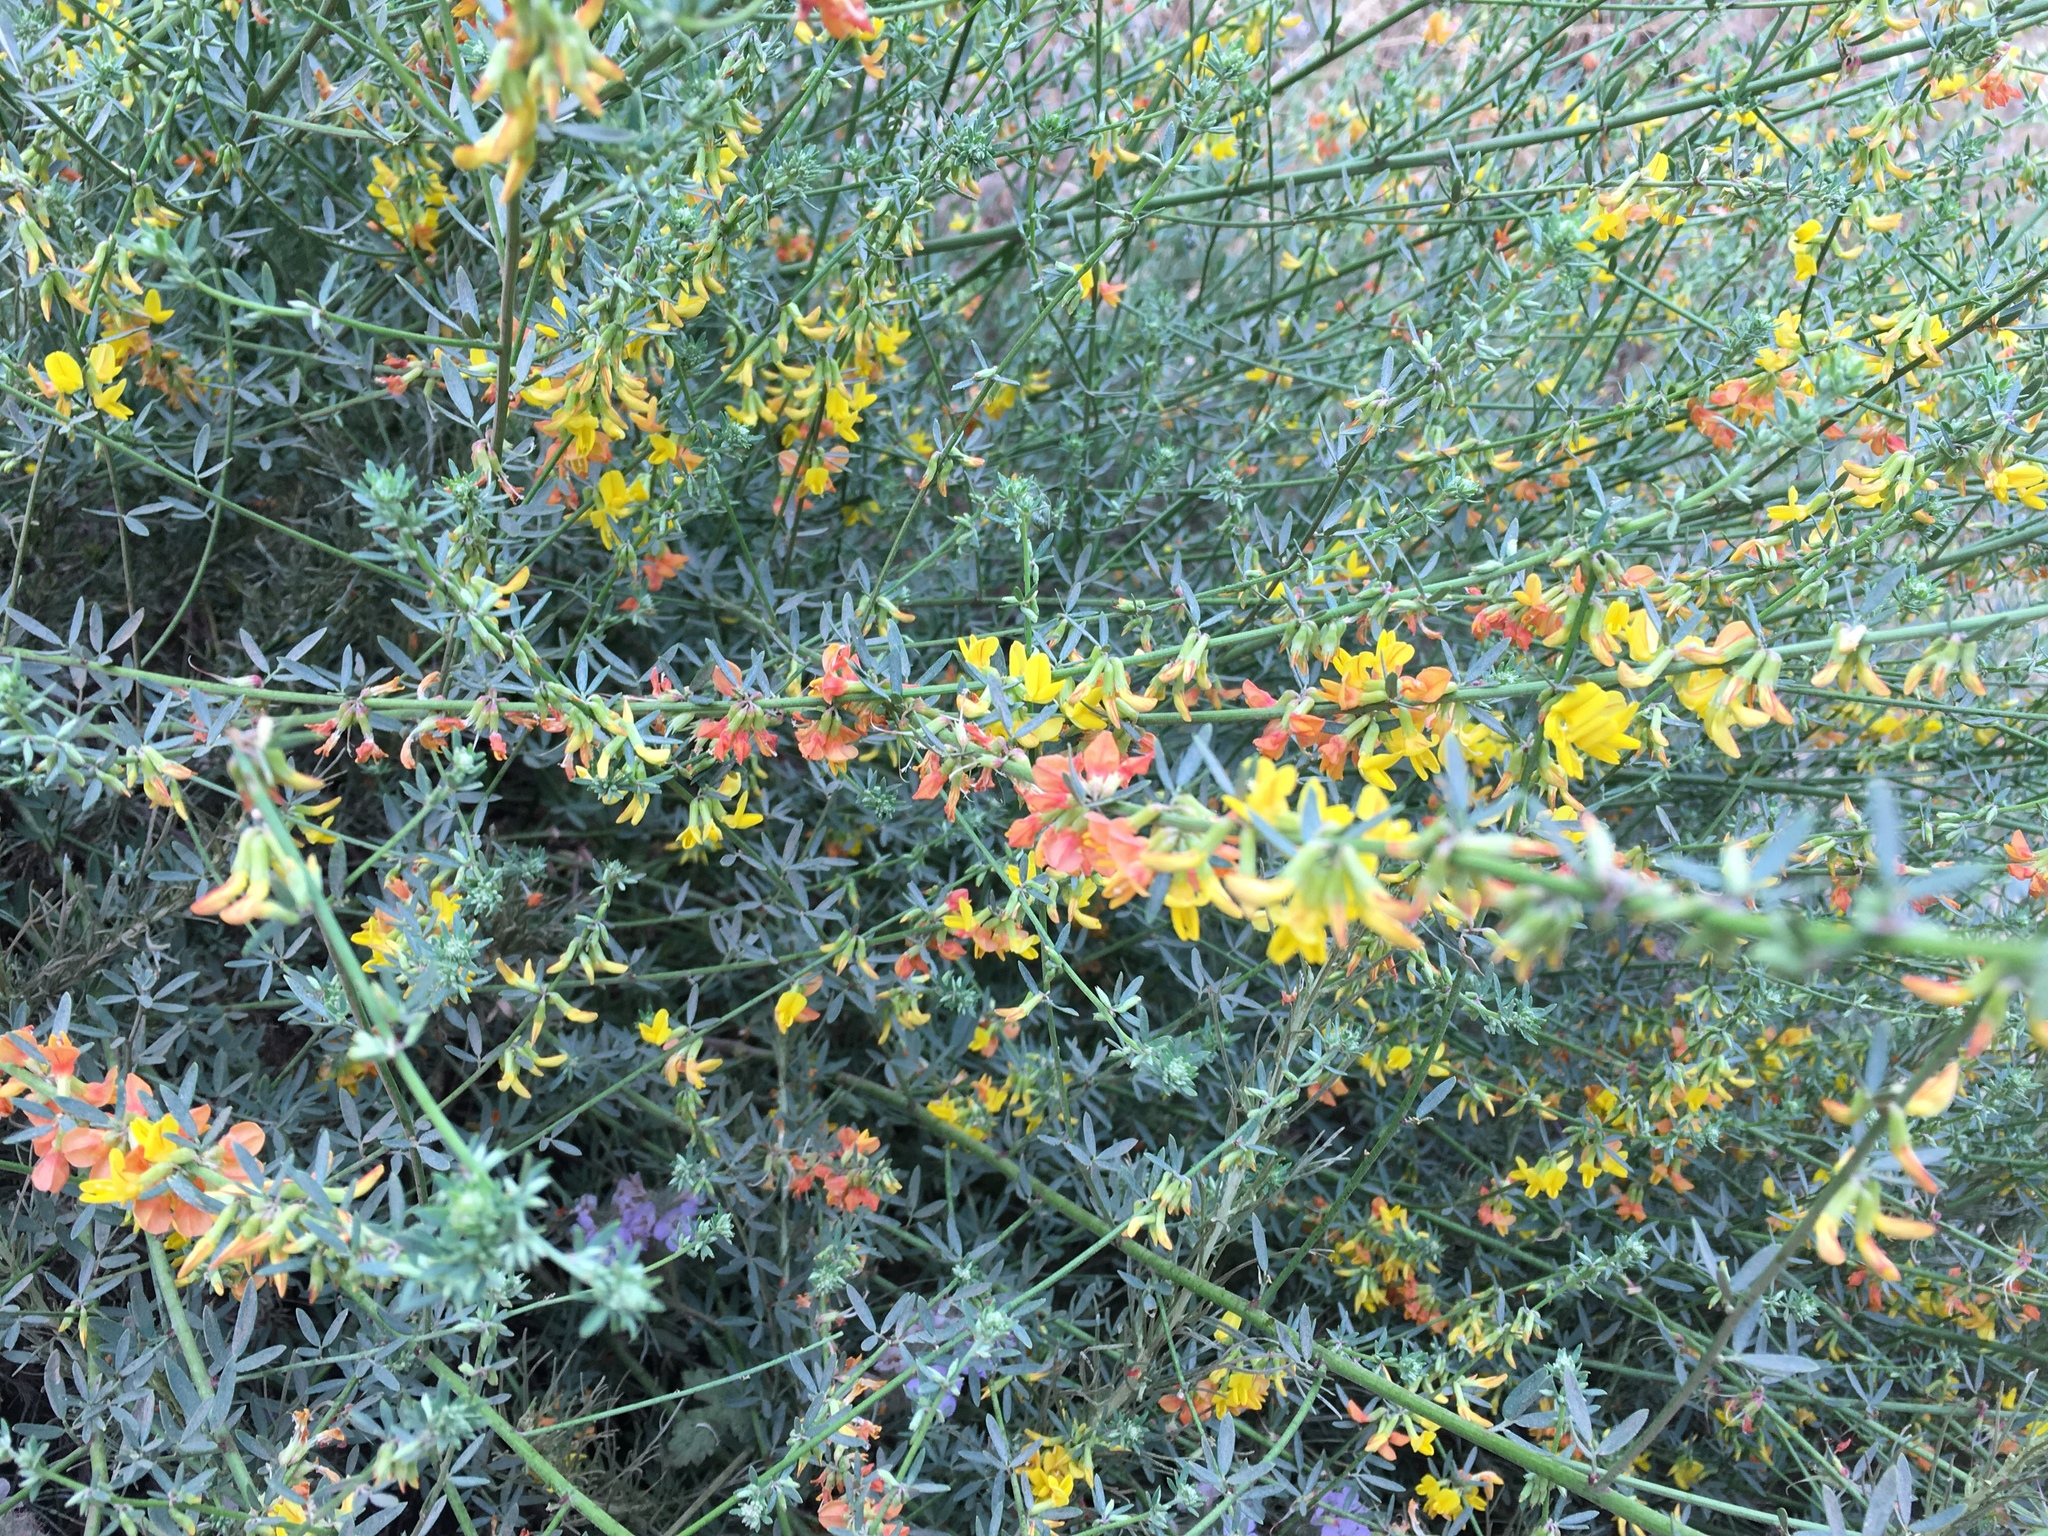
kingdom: Plantae
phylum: Tracheophyta
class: Magnoliopsida
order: Fabales
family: Fabaceae
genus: Acmispon
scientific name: Acmispon glaber
